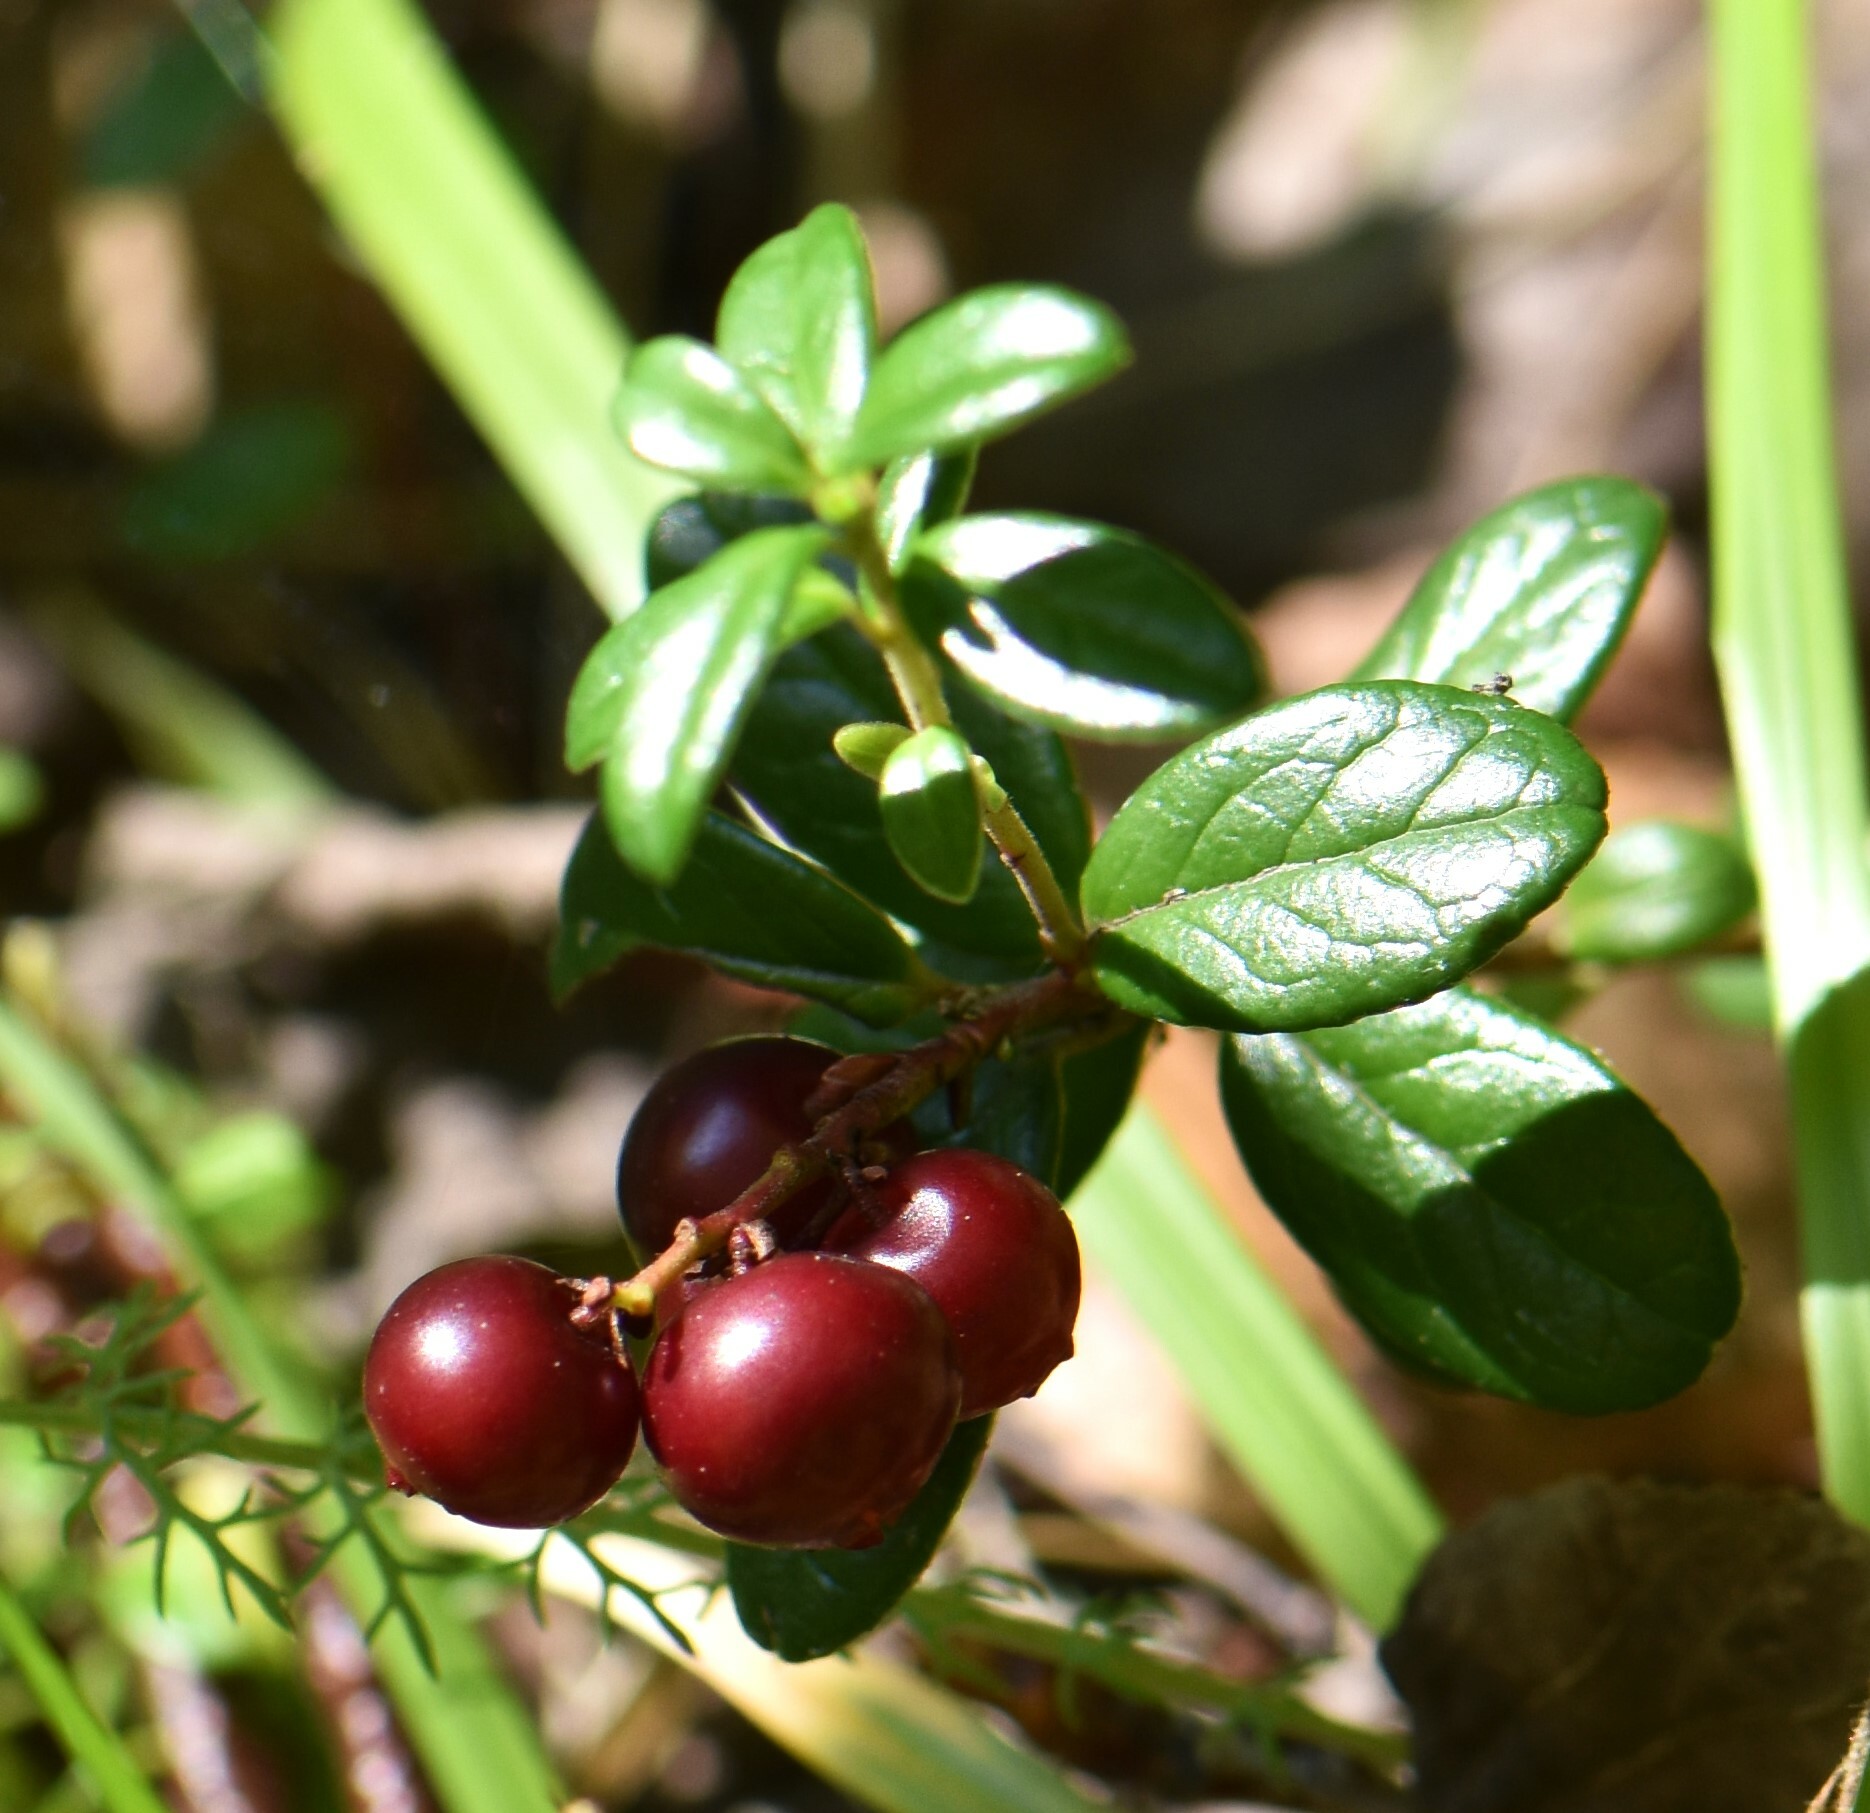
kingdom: Plantae
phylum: Tracheophyta
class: Magnoliopsida
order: Ericales
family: Ericaceae
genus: Vaccinium
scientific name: Vaccinium vitis-idaea
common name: Cowberry
